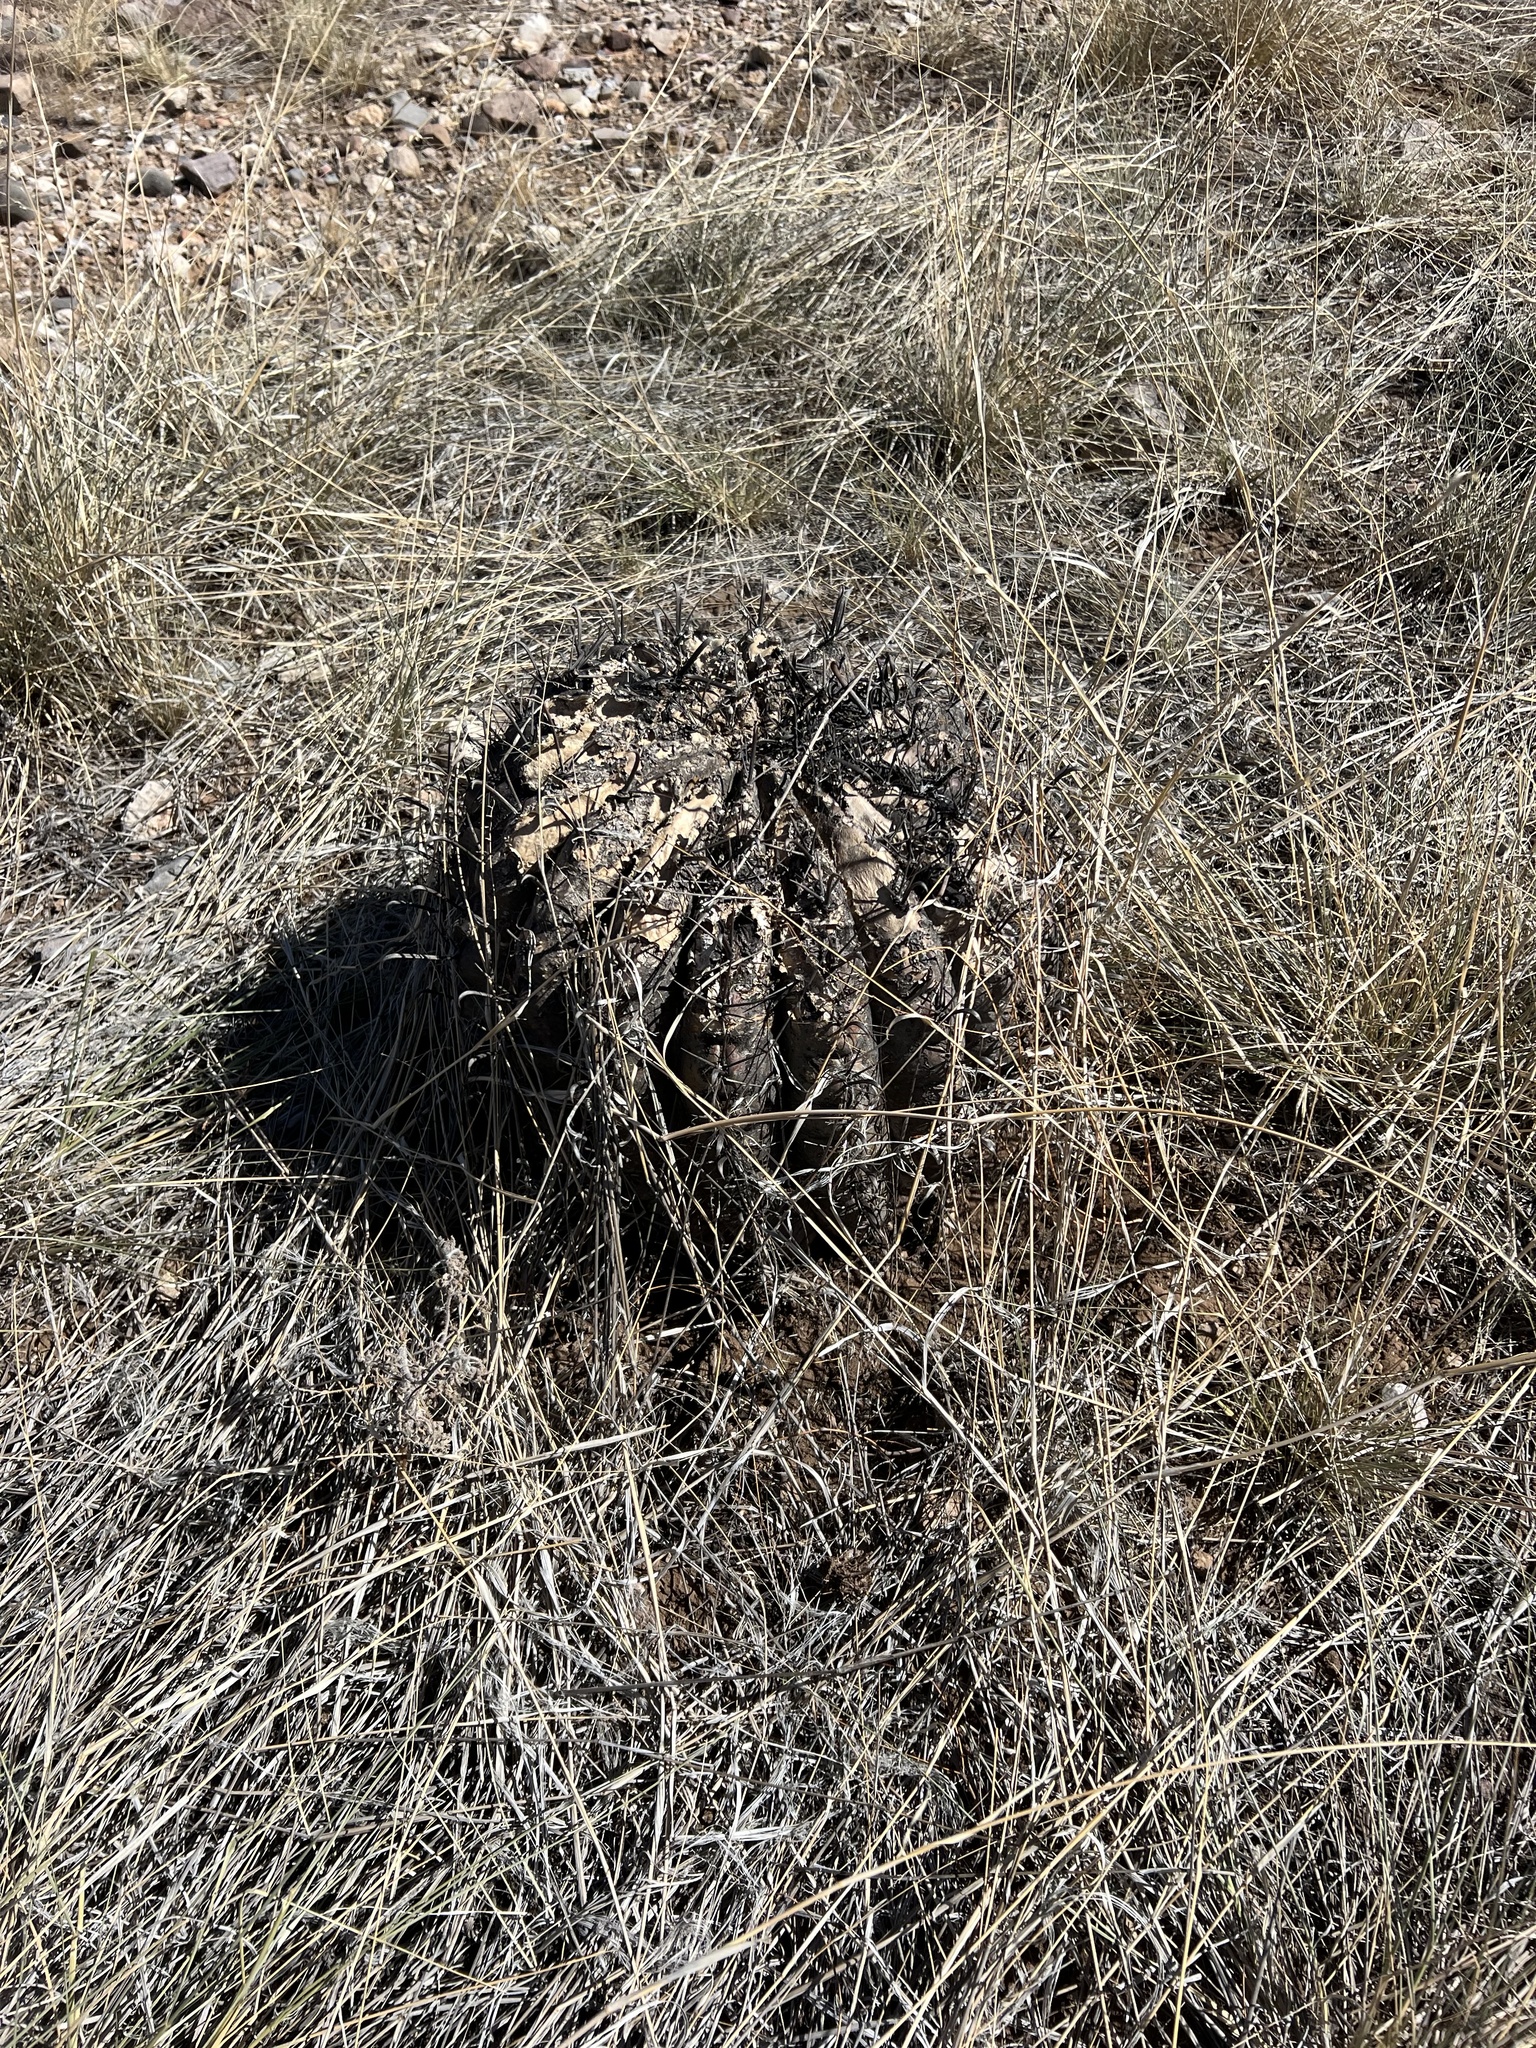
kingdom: Plantae
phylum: Tracheophyta
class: Magnoliopsida
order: Caryophyllales
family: Cactaceae
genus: Ferocactus
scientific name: Ferocactus wislizeni
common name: Candy barrel cactus
